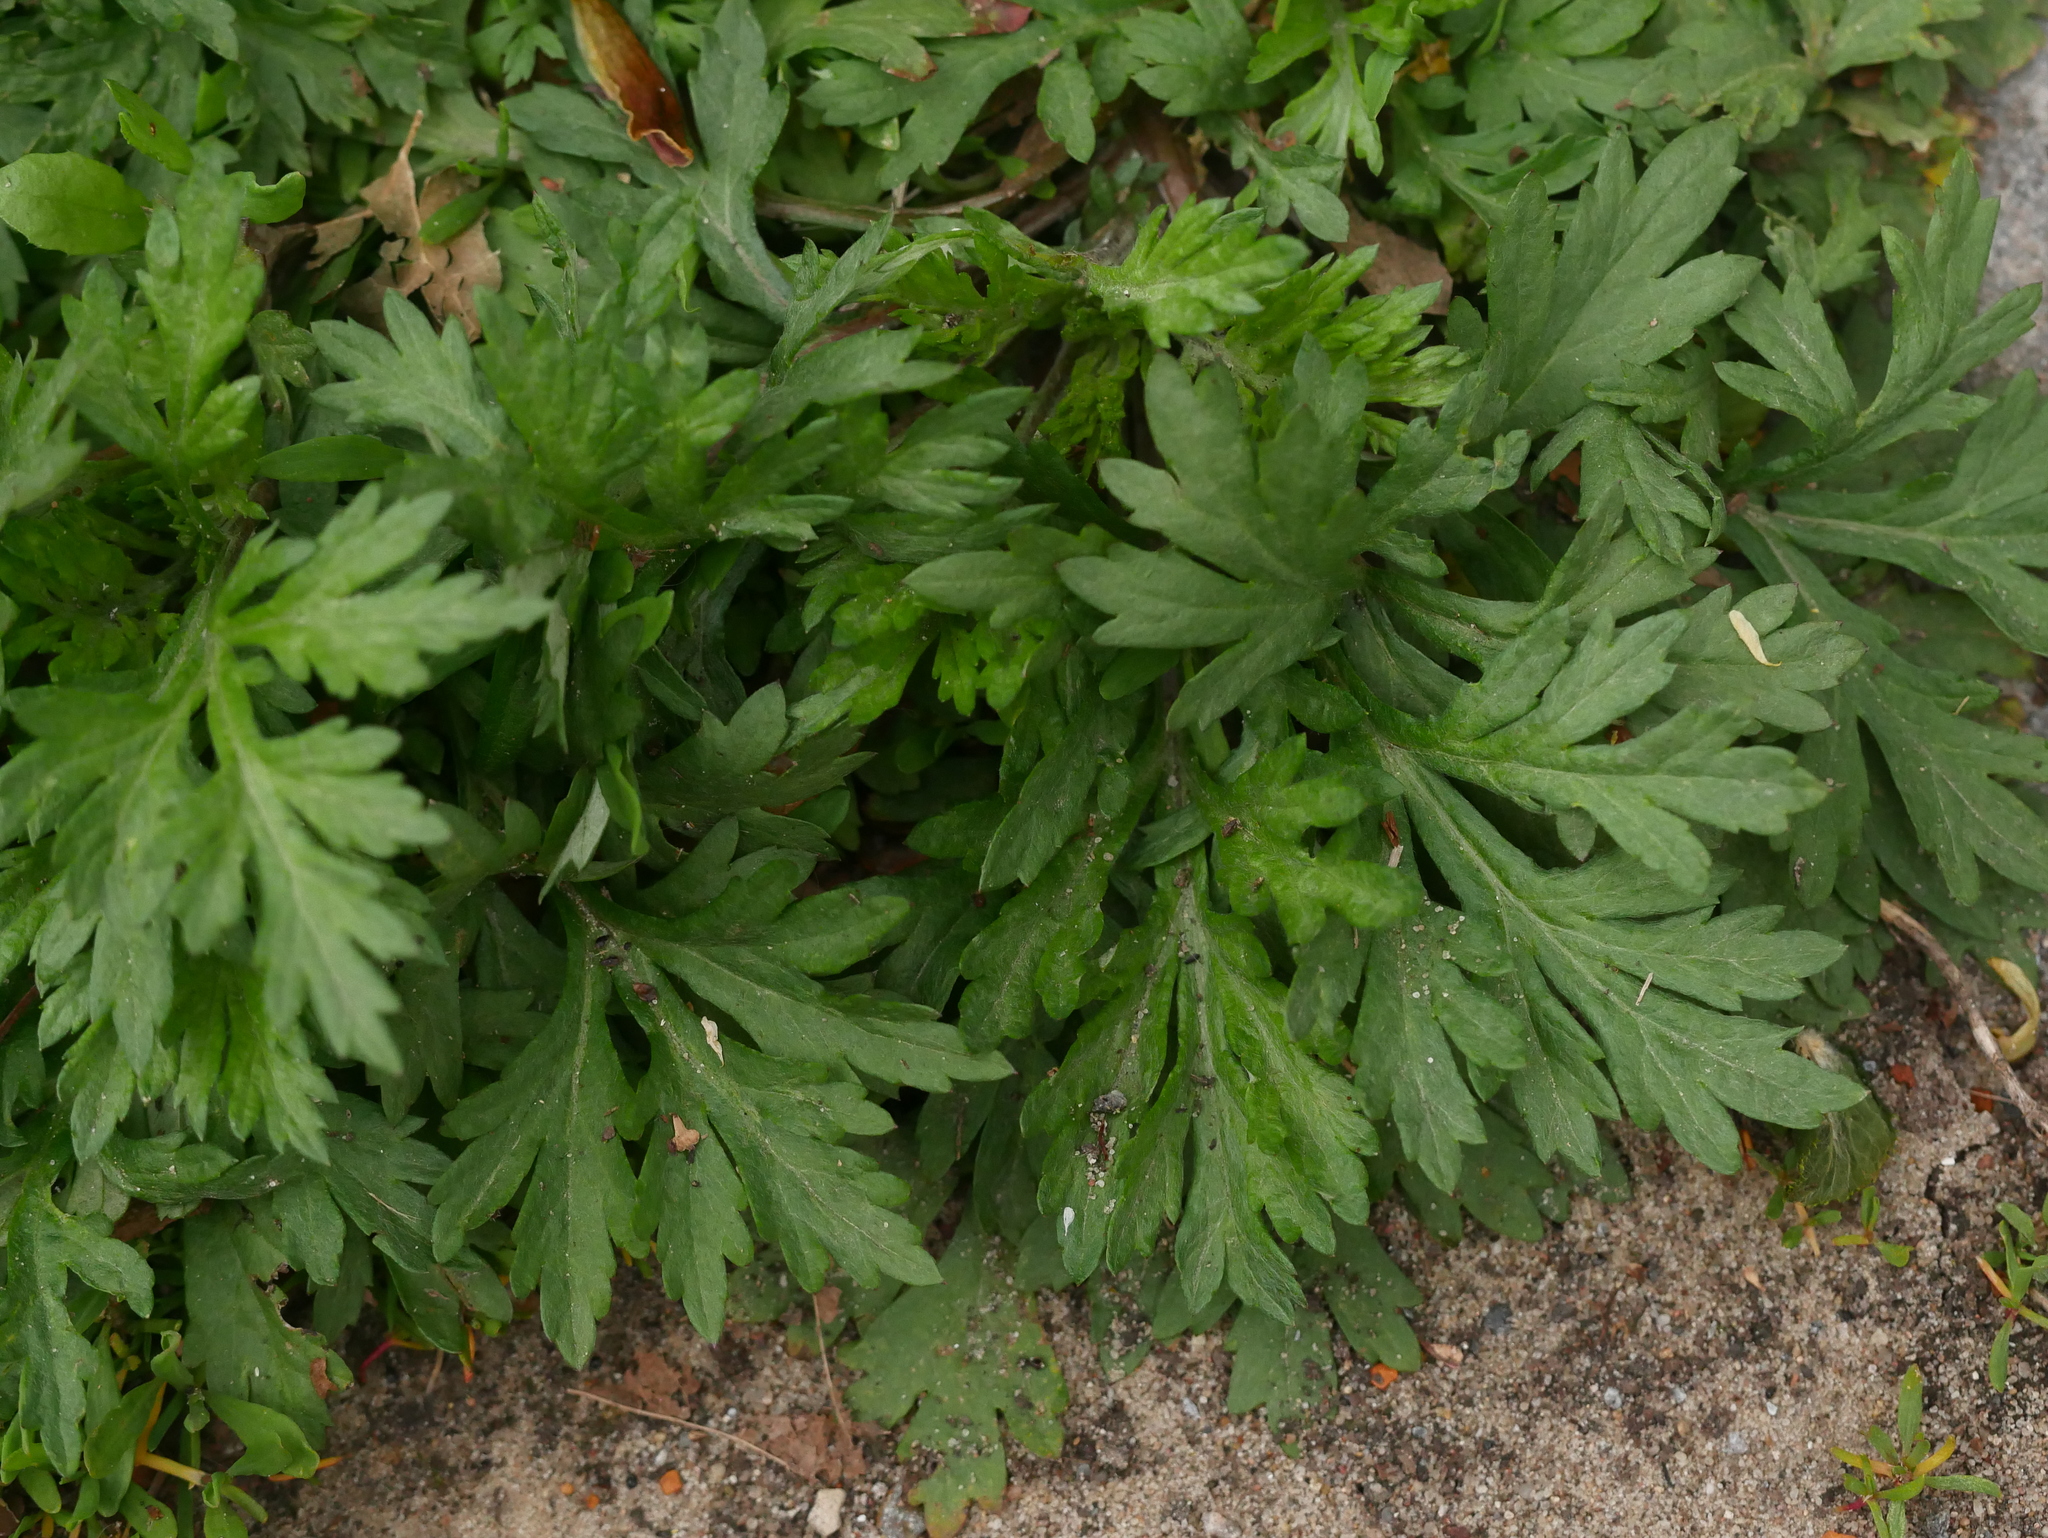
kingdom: Plantae
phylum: Tracheophyta
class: Magnoliopsida
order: Asterales
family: Asteraceae
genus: Artemisia
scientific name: Artemisia vulgaris
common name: Mugwort
